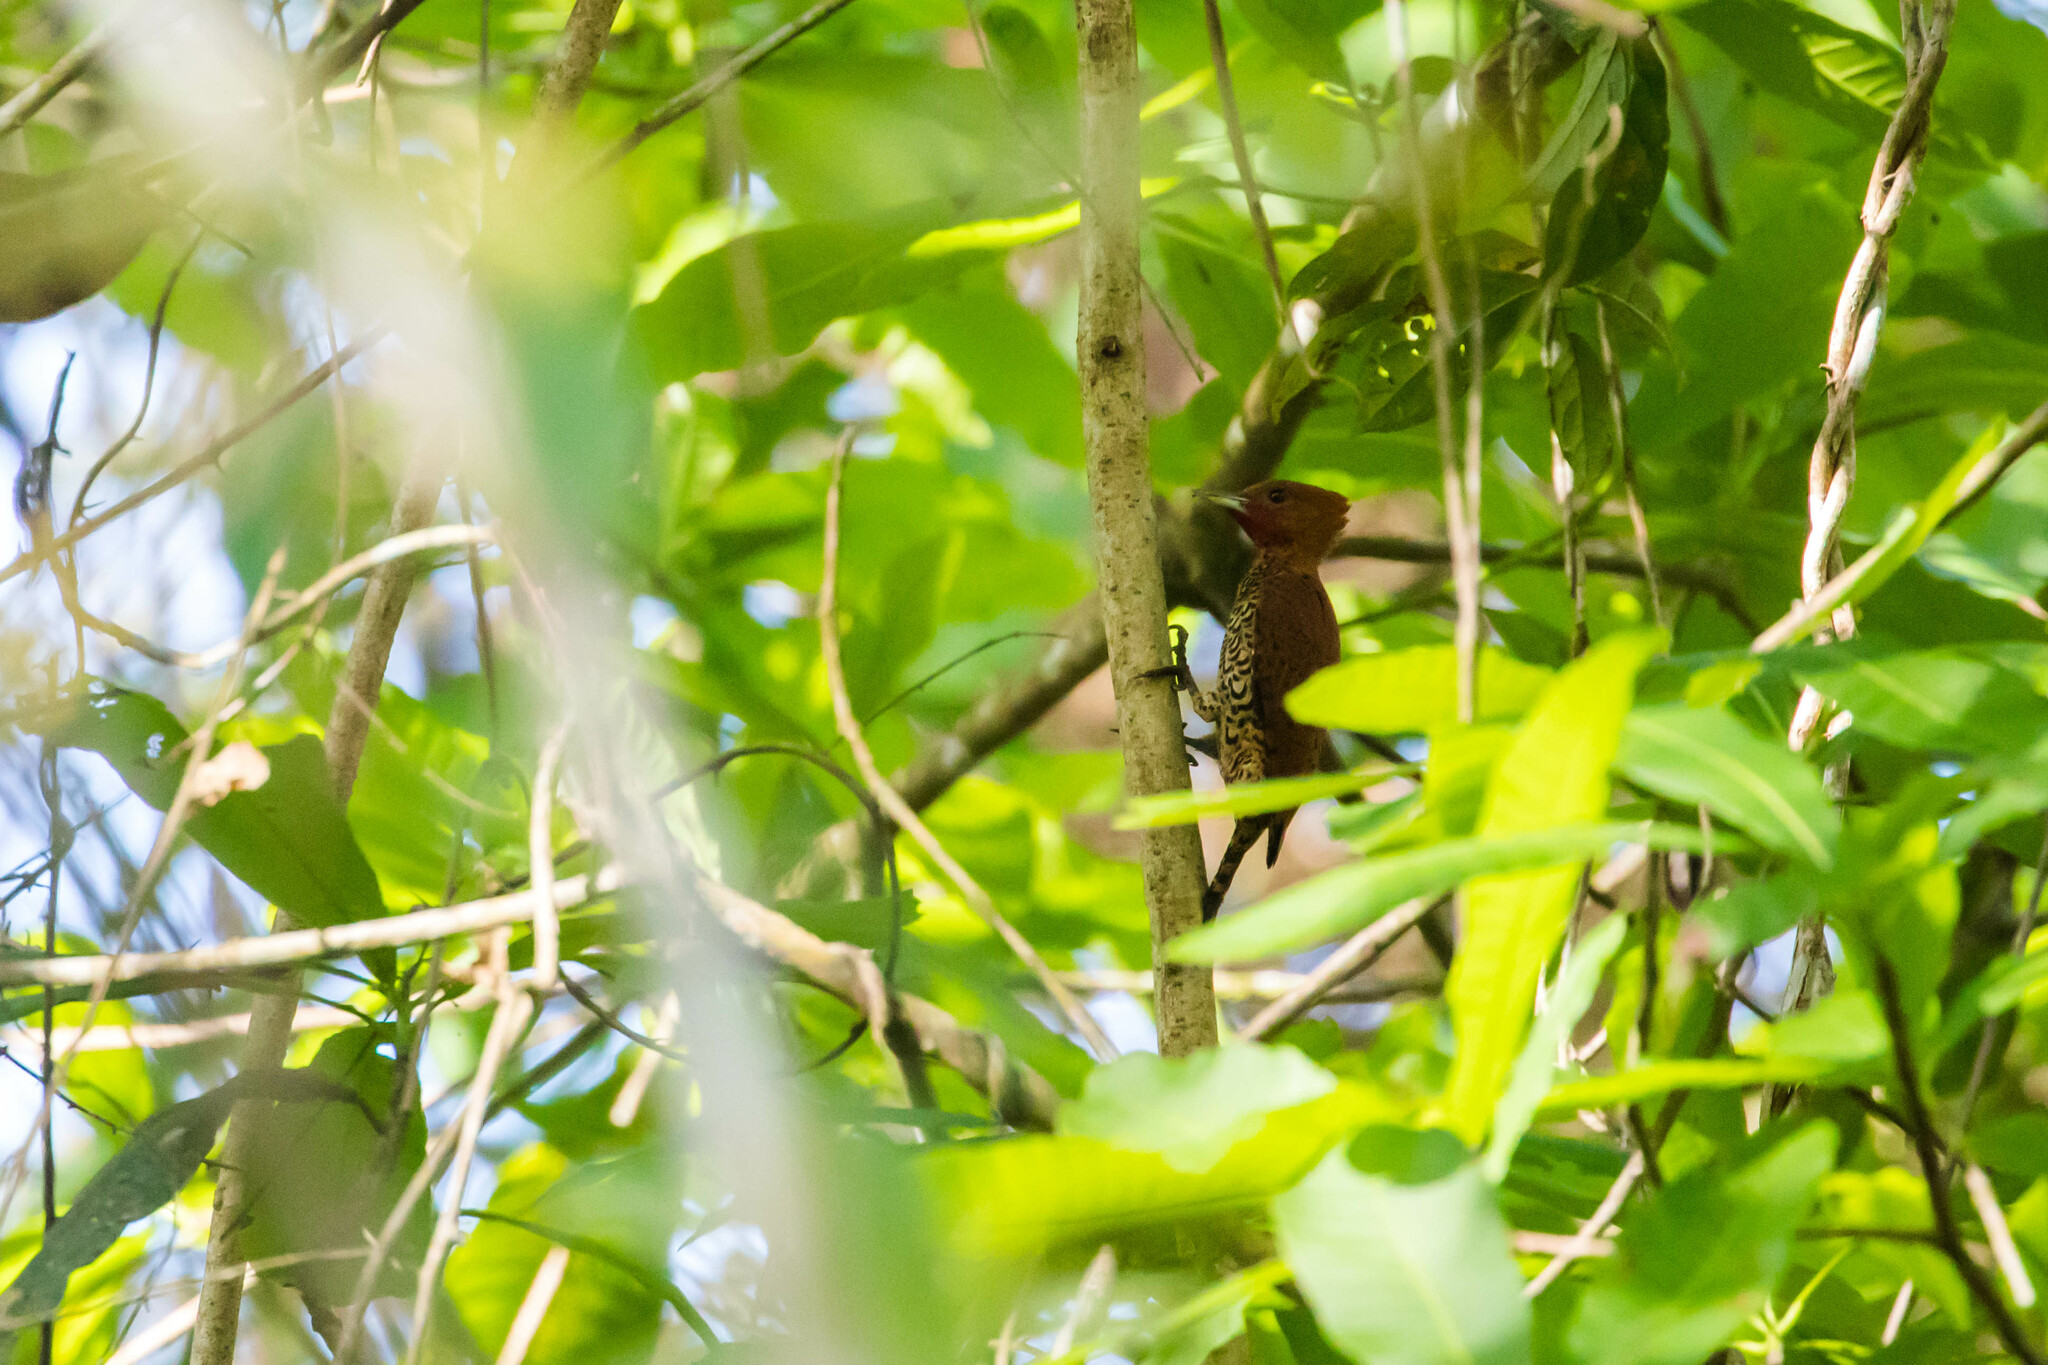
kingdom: Animalia
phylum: Chordata
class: Aves
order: Piciformes
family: Picidae
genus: Celeus
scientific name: Celeus loricatus
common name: Cinnamon woodpecker
